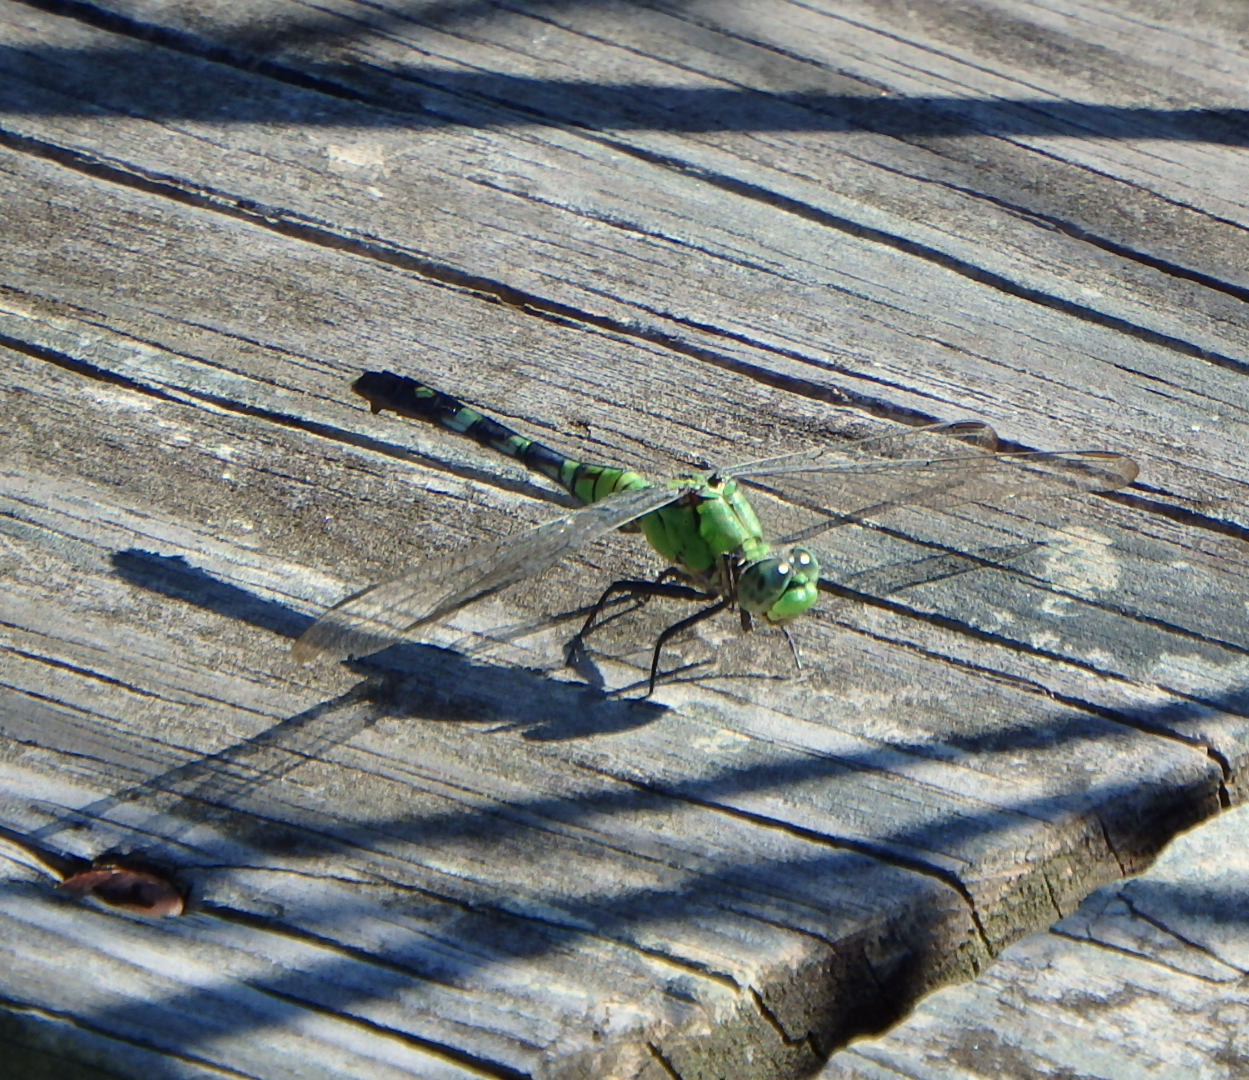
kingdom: Animalia
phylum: Arthropoda
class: Insecta
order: Odonata
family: Libellulidae
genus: Erythemis
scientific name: Erythemis simplicicollis
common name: Eastern pondhawk
